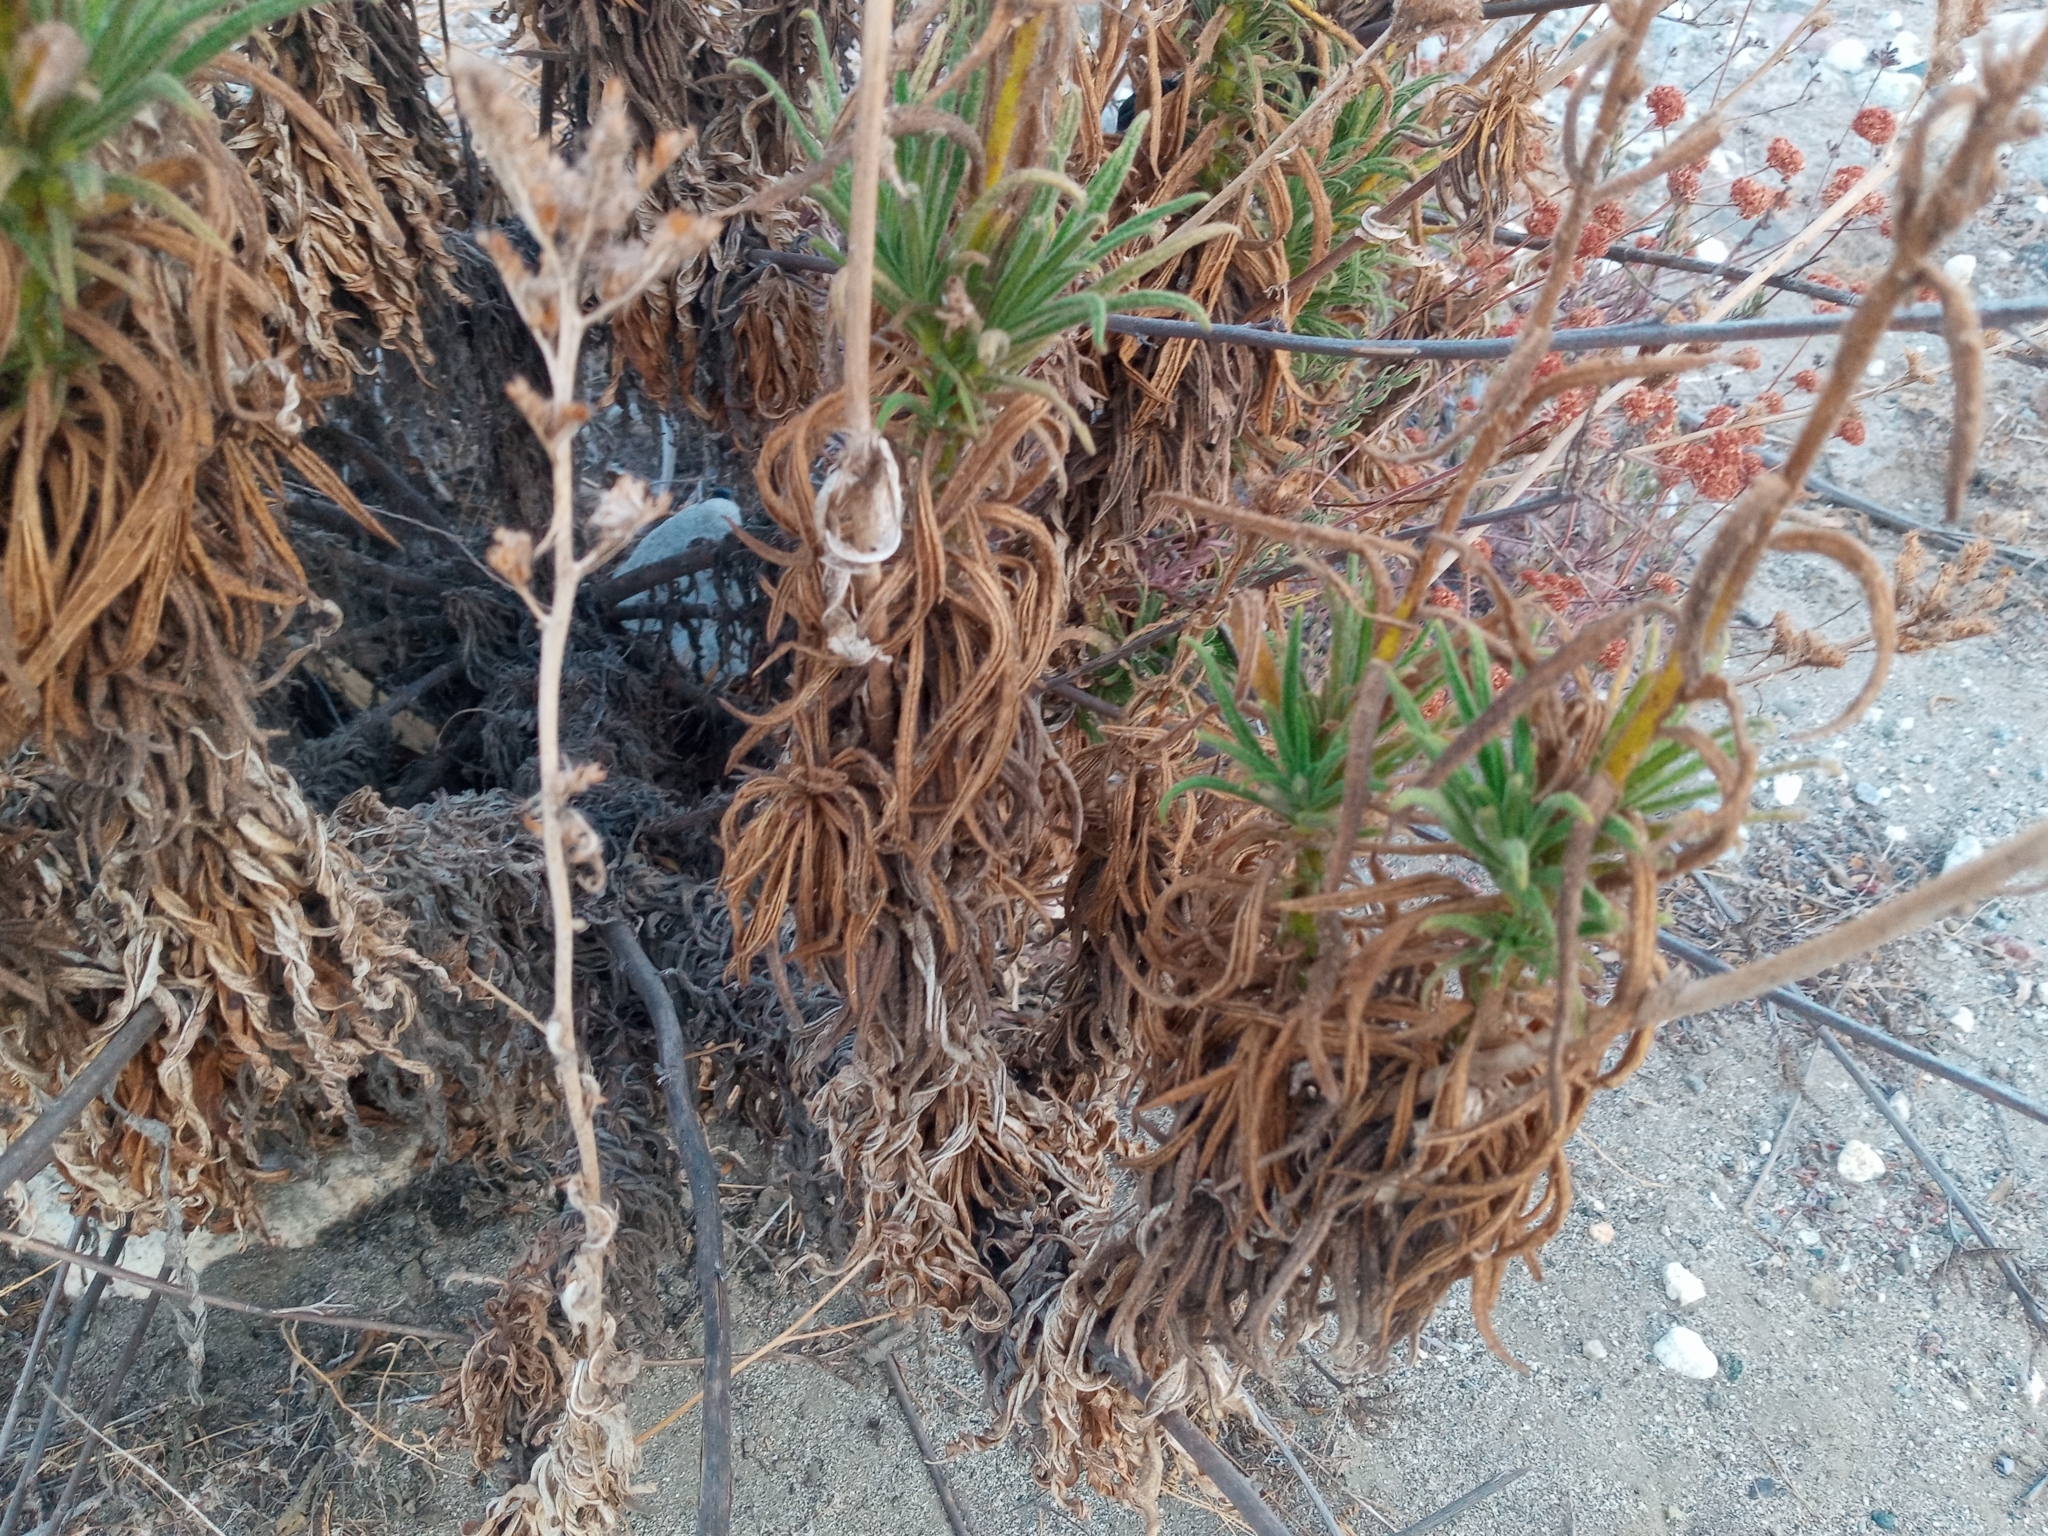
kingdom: Plantae
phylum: Tracheophyta
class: Magnoliopsida
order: Boraginales
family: Namaceae
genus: Turricula
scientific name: Turricula parryi
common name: Poodle-dog-bush
